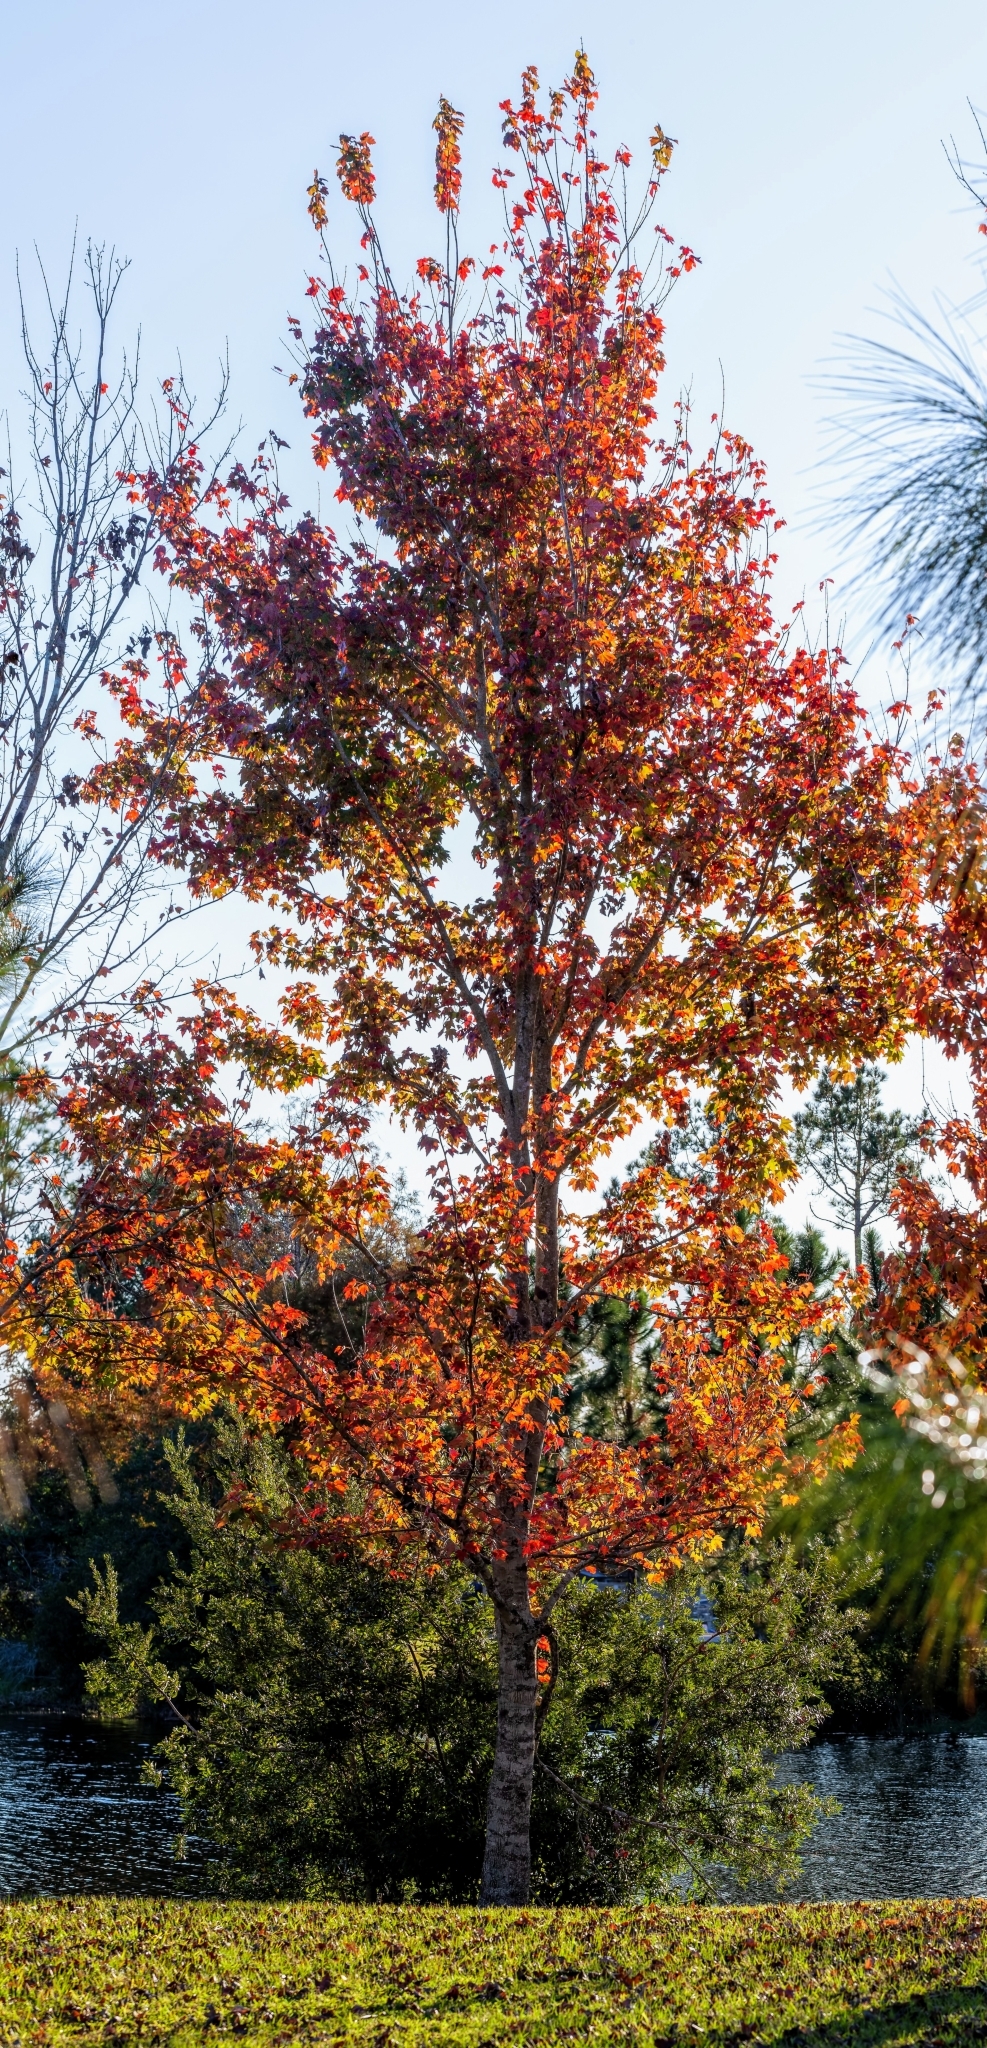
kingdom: Plantae
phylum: Tracheophyta
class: Magnoliopsida
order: Sapindales
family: Sapindaceae
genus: Acer
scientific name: Acer rubrum
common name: Red maple
